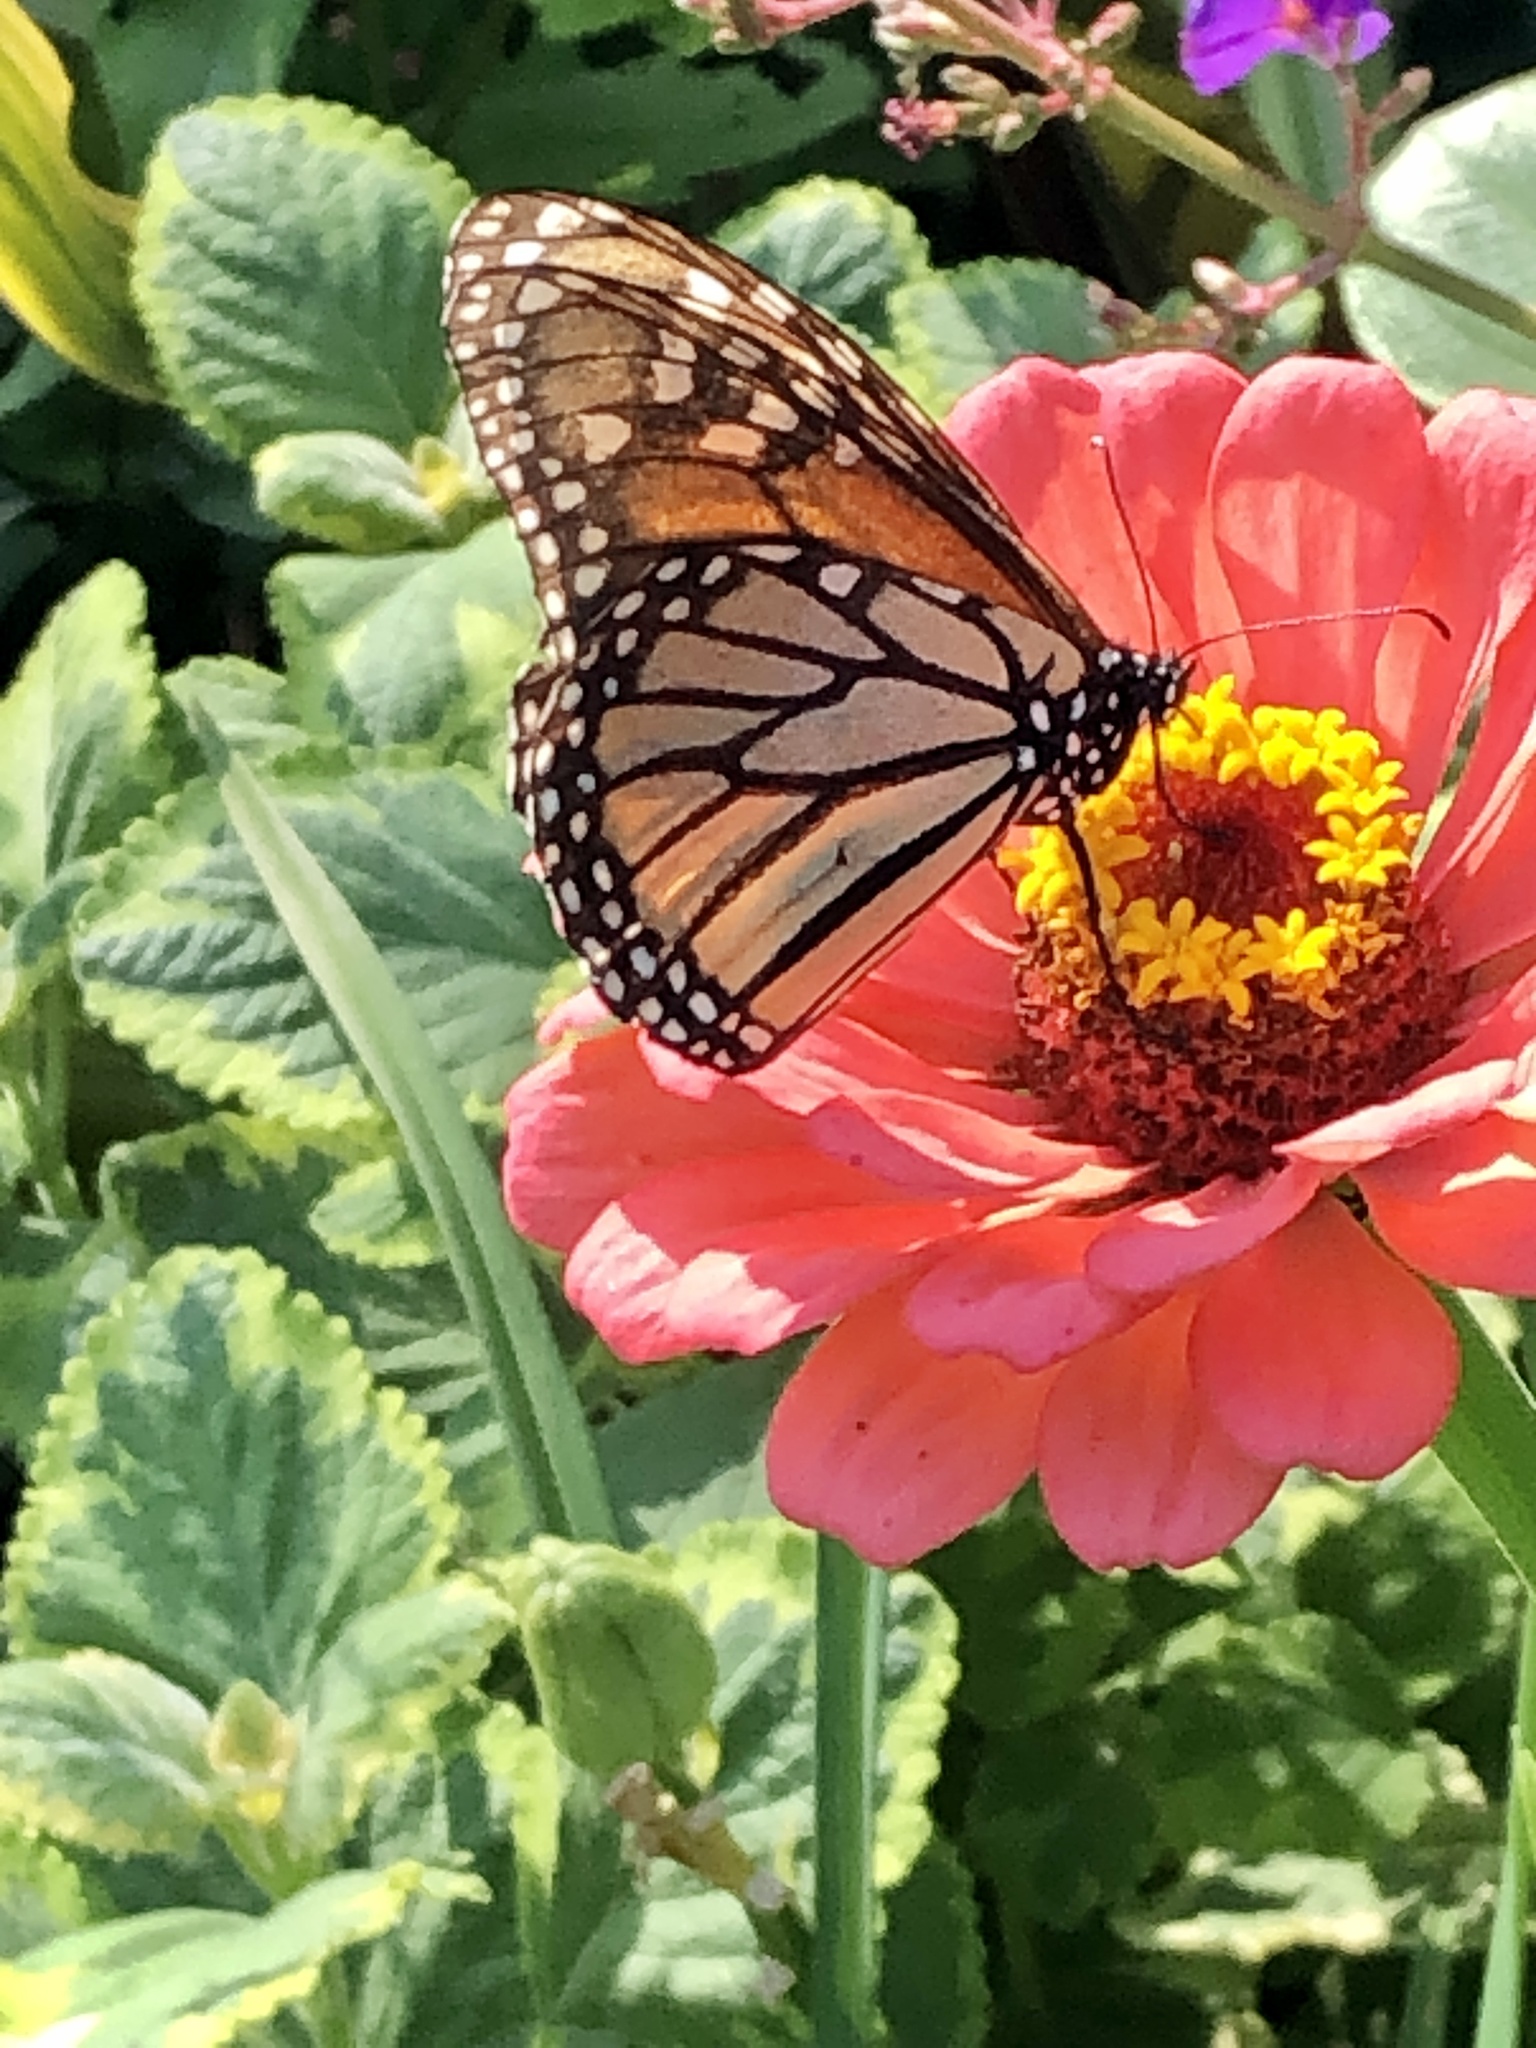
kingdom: Animalia
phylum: Arthropoda
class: Insecta
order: Lepidoptera
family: Nymphalidae
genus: Danaus
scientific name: Danaus plexippus
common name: Monarch
